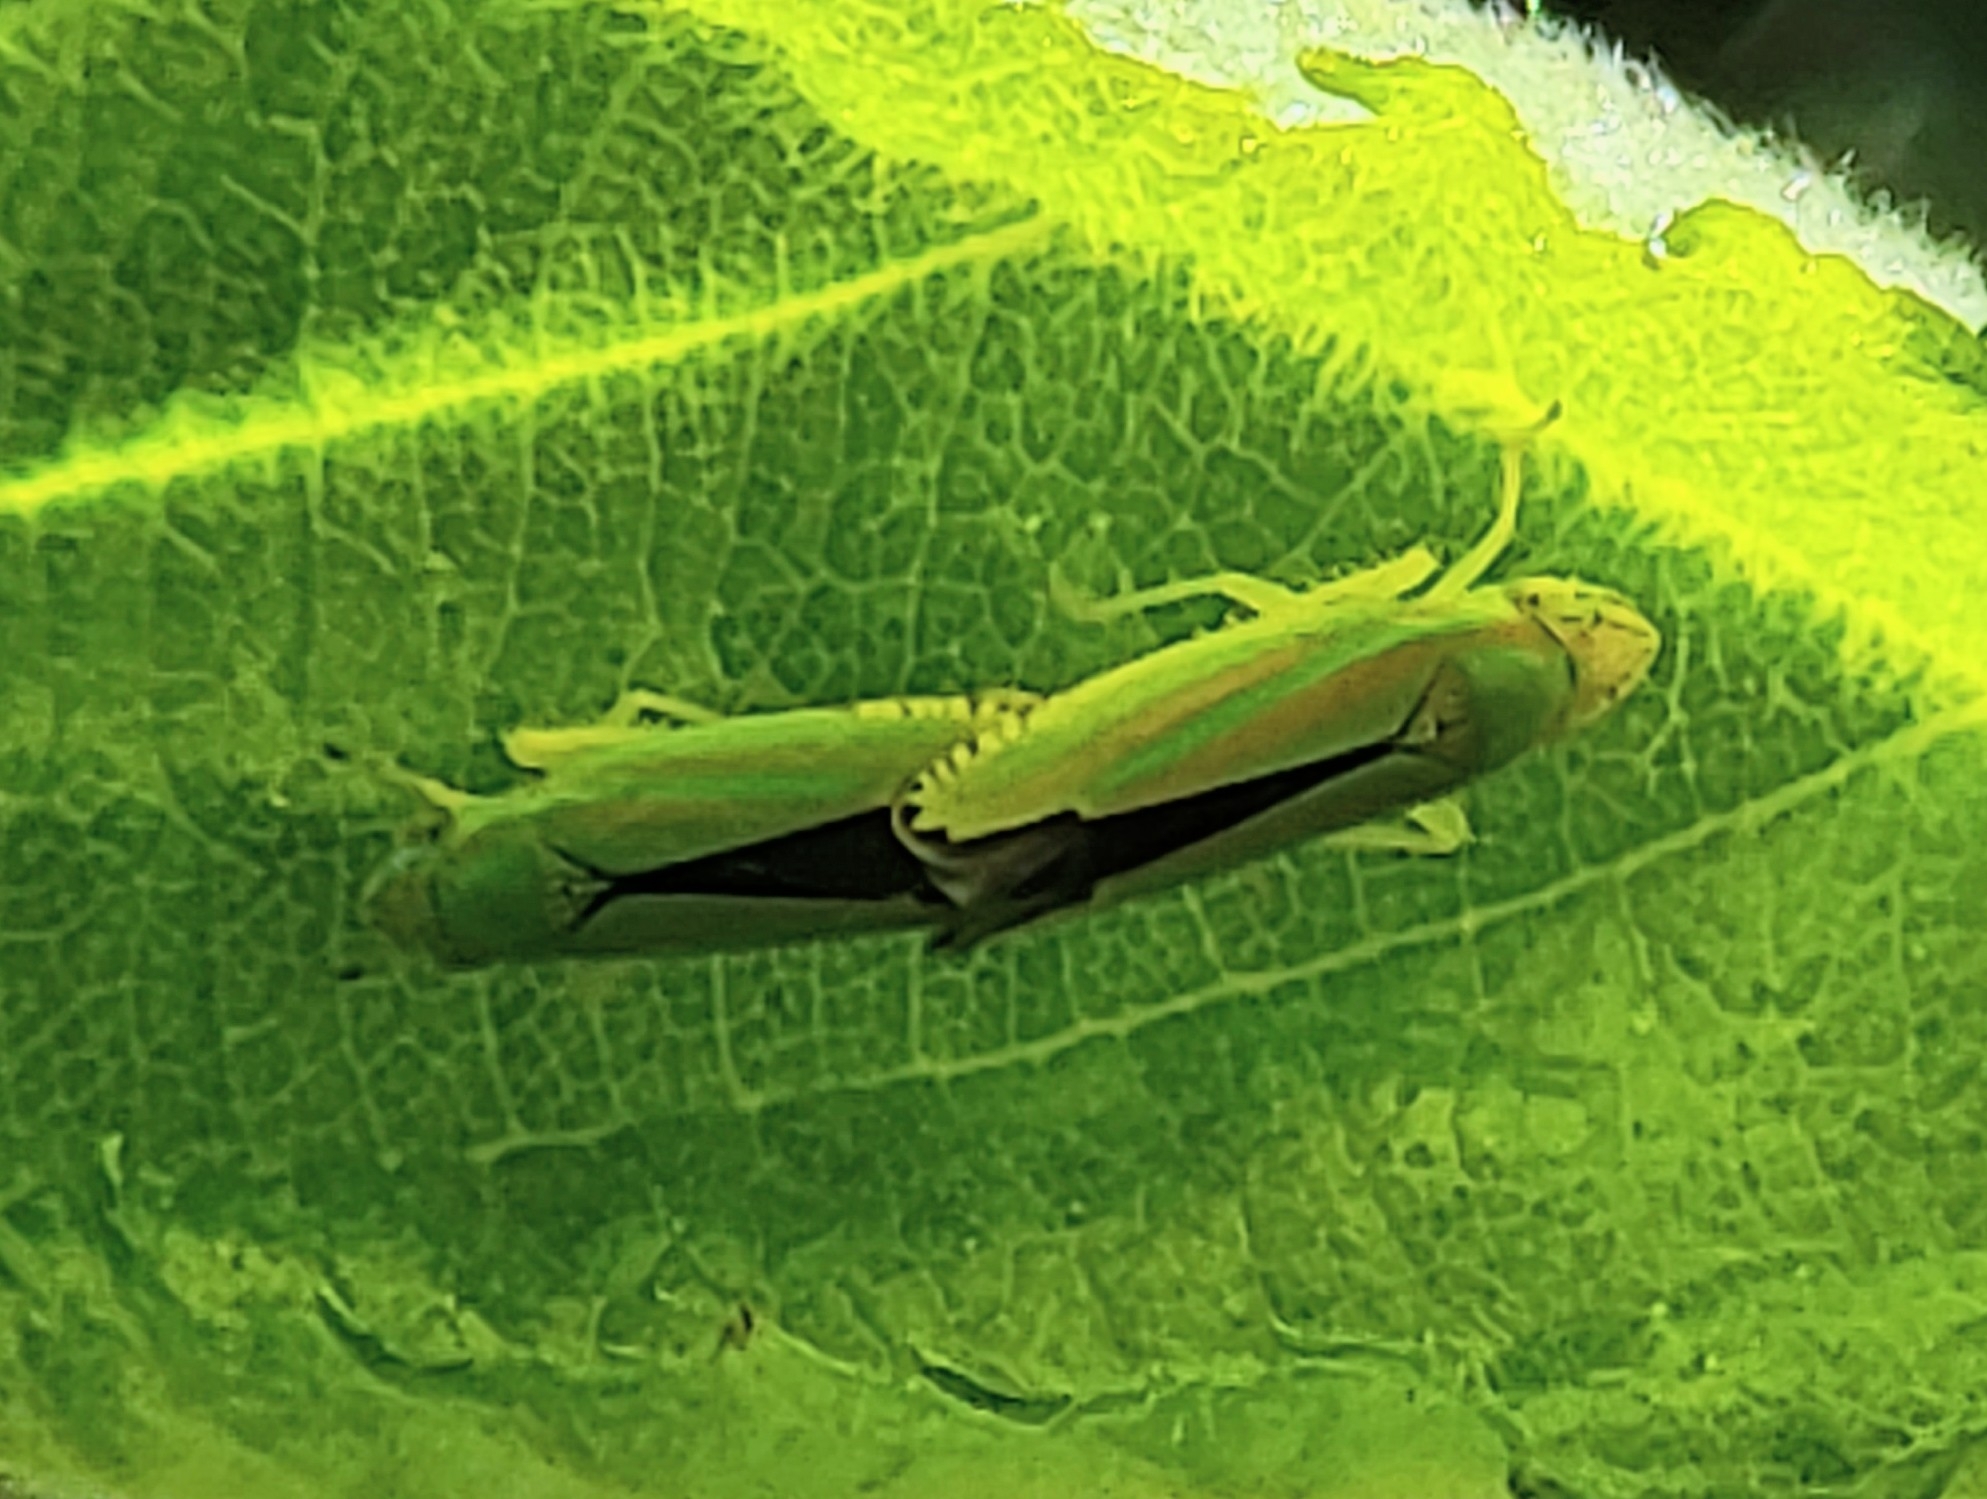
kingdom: Animalia
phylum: Arthropoda
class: Insecta
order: Hemiptera
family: Cicadellidae
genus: Graphocephala
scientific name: Graphocephala versuta
